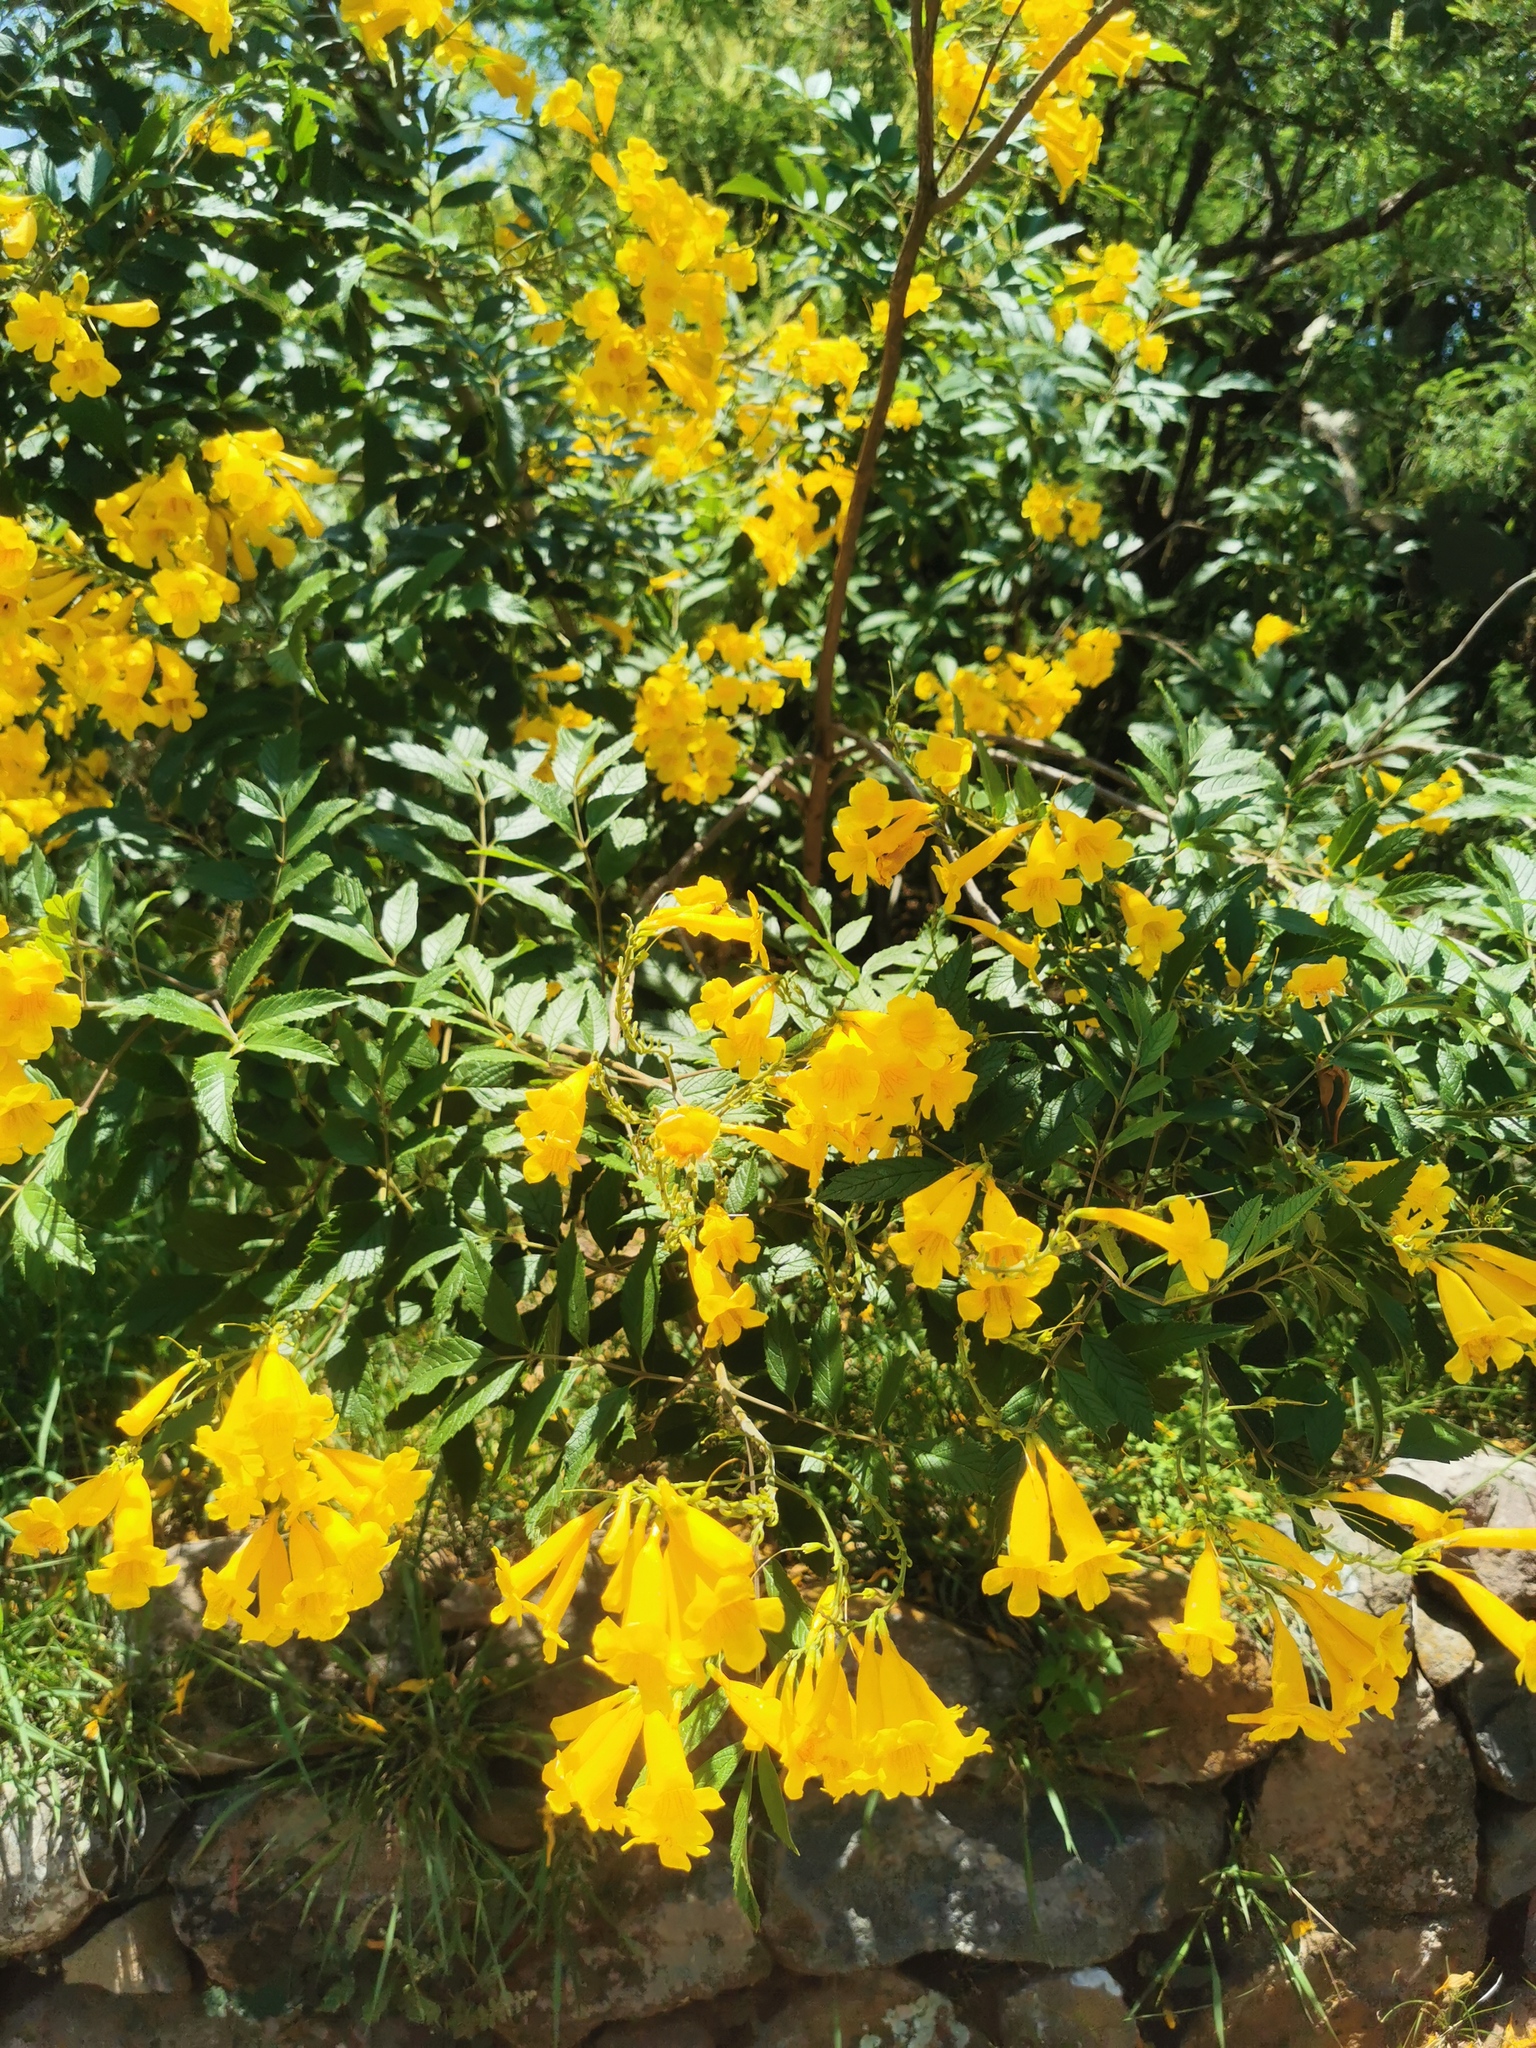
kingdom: Plantae
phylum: Tracheophyta
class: Magnoliopsida
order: Lamiales
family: Bignoniaceae
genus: Tecoma
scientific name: Tecoma stans
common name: Yellow trumpetbush
